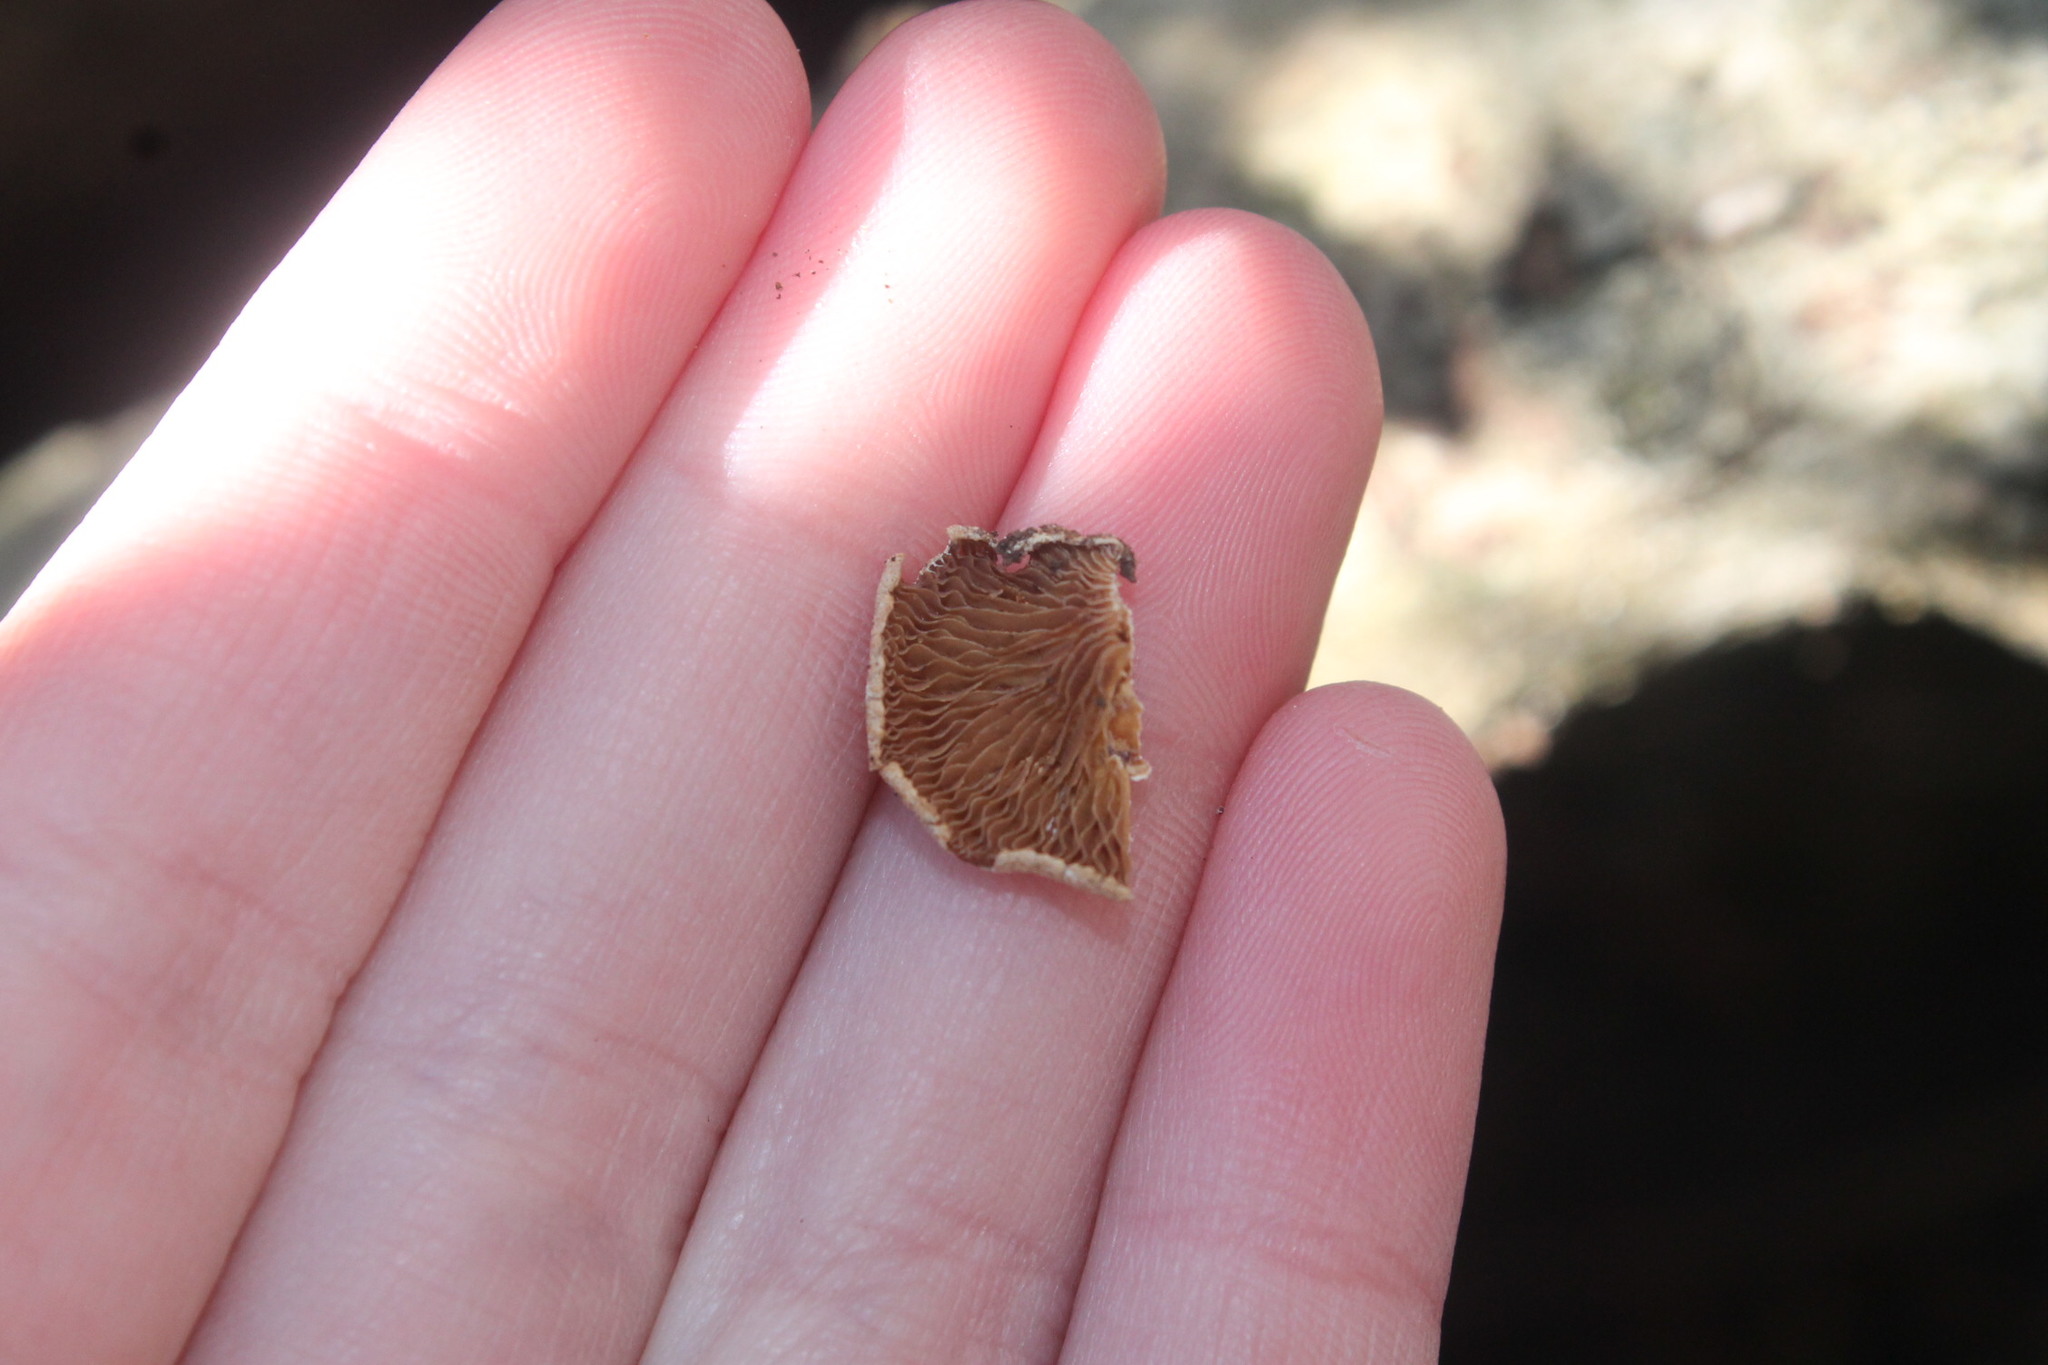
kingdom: Fungi
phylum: Basidiomycota
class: Agaricomycetes
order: Agaricales
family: Mycenaceae
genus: Panellus
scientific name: Panellus stipticus
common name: Bitter oysterling
